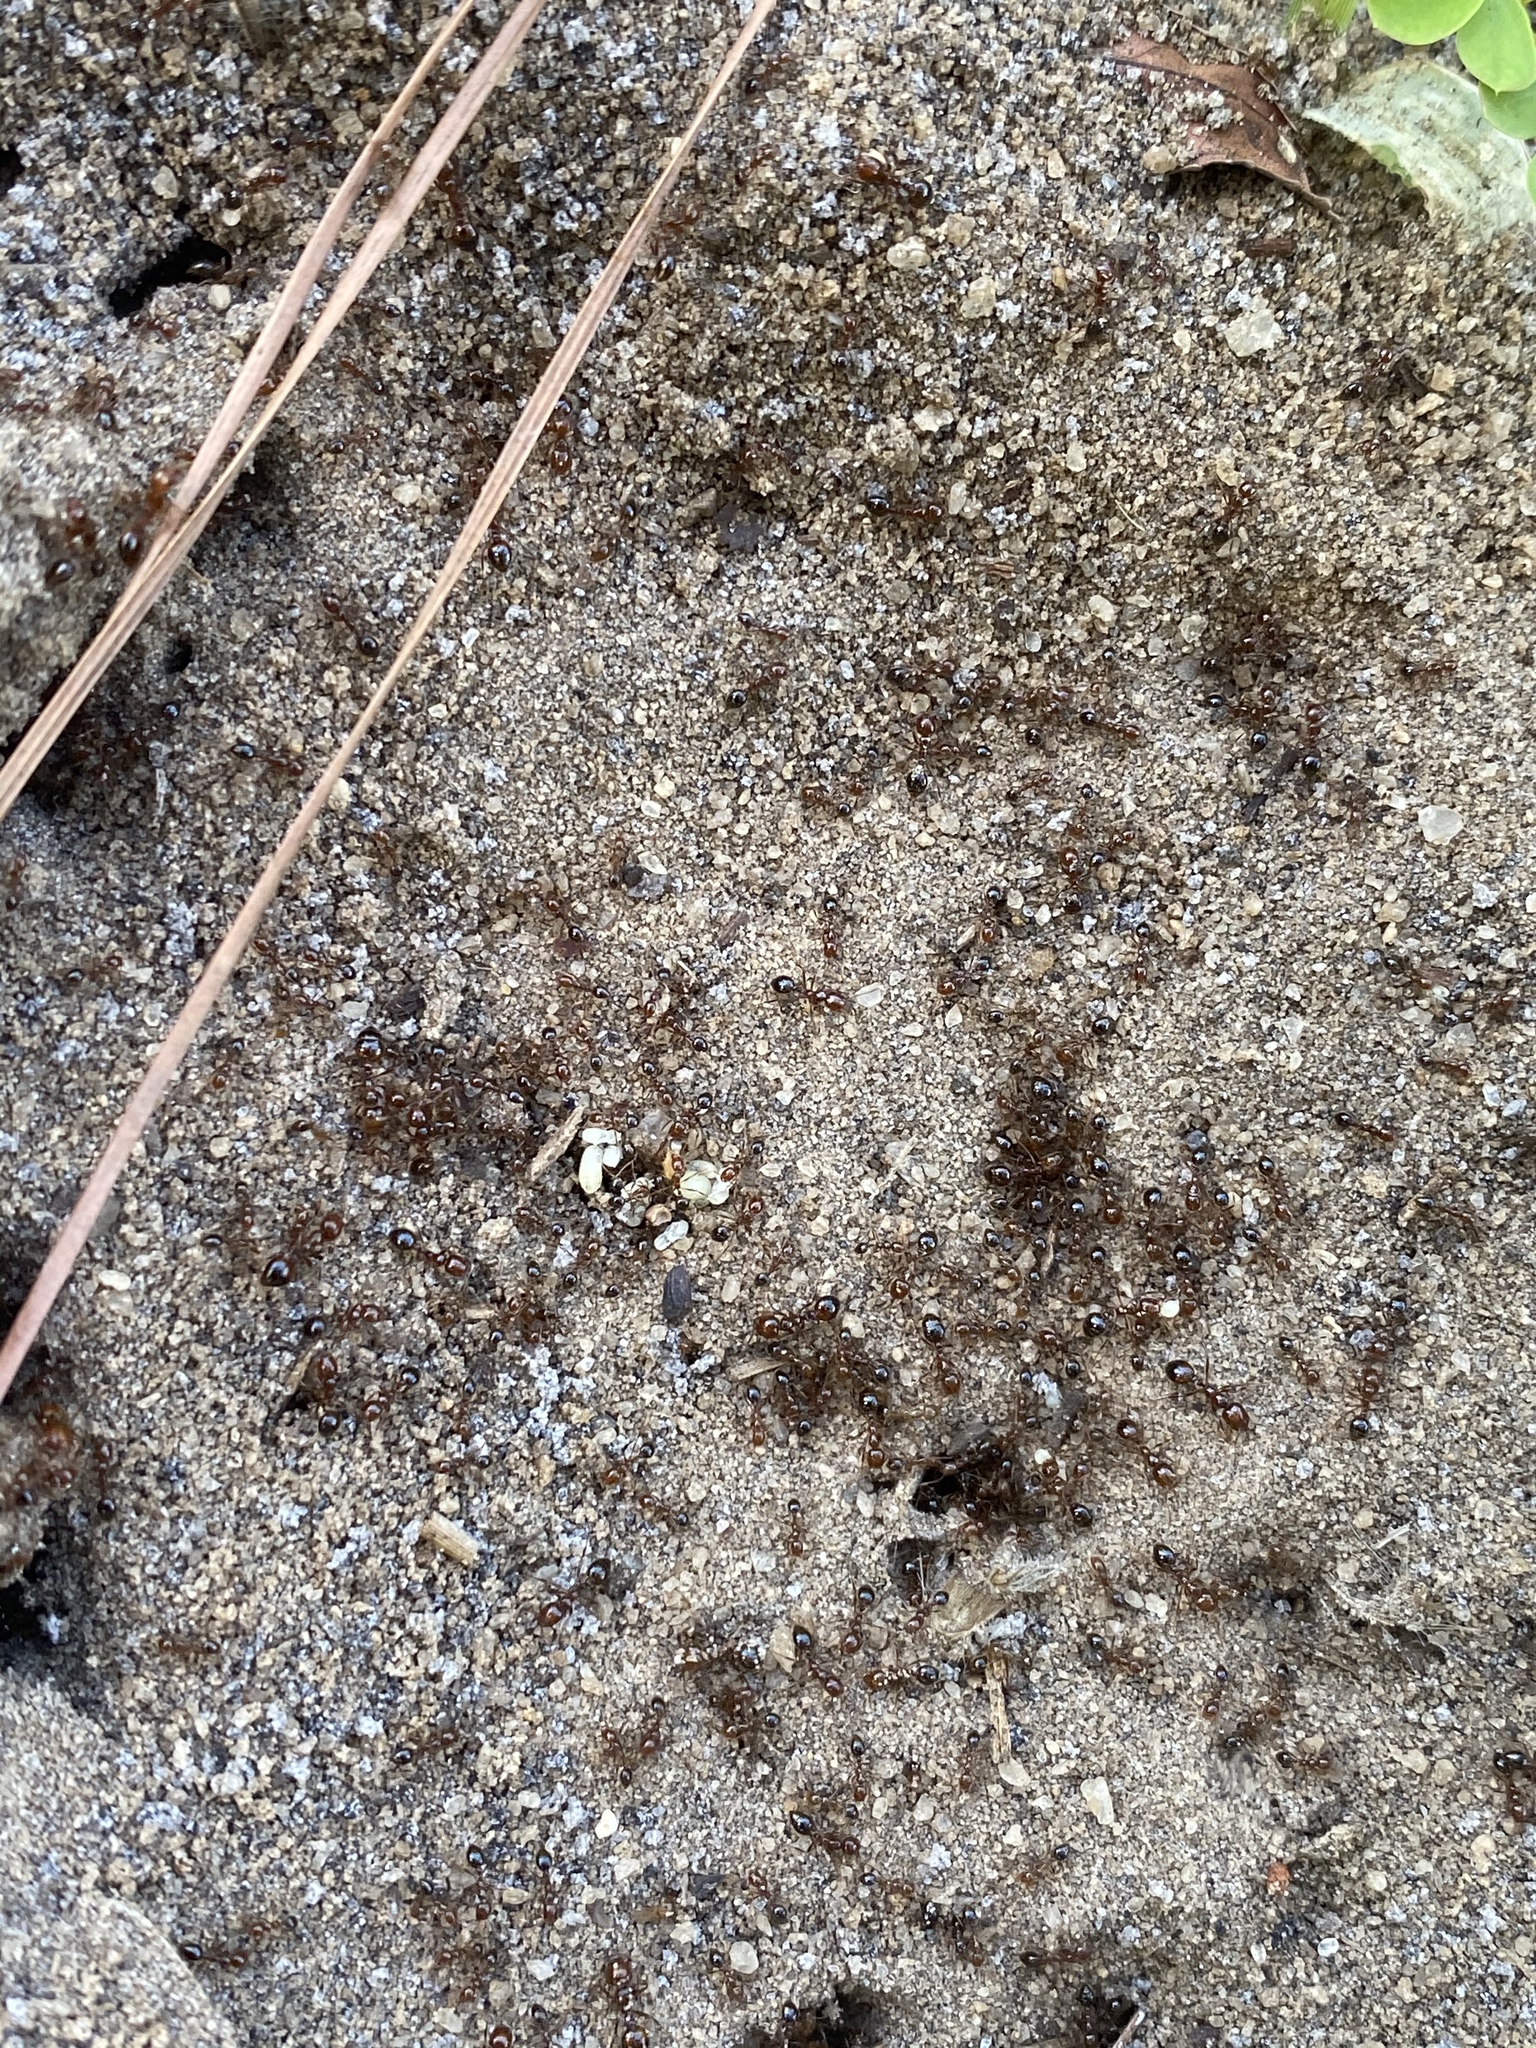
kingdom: Animalia
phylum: Arthropoda
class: Insecta
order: Hymenoptera
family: Formicidae
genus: Solenopsis
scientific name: Solenopsis invicta
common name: Red imported fire ant
